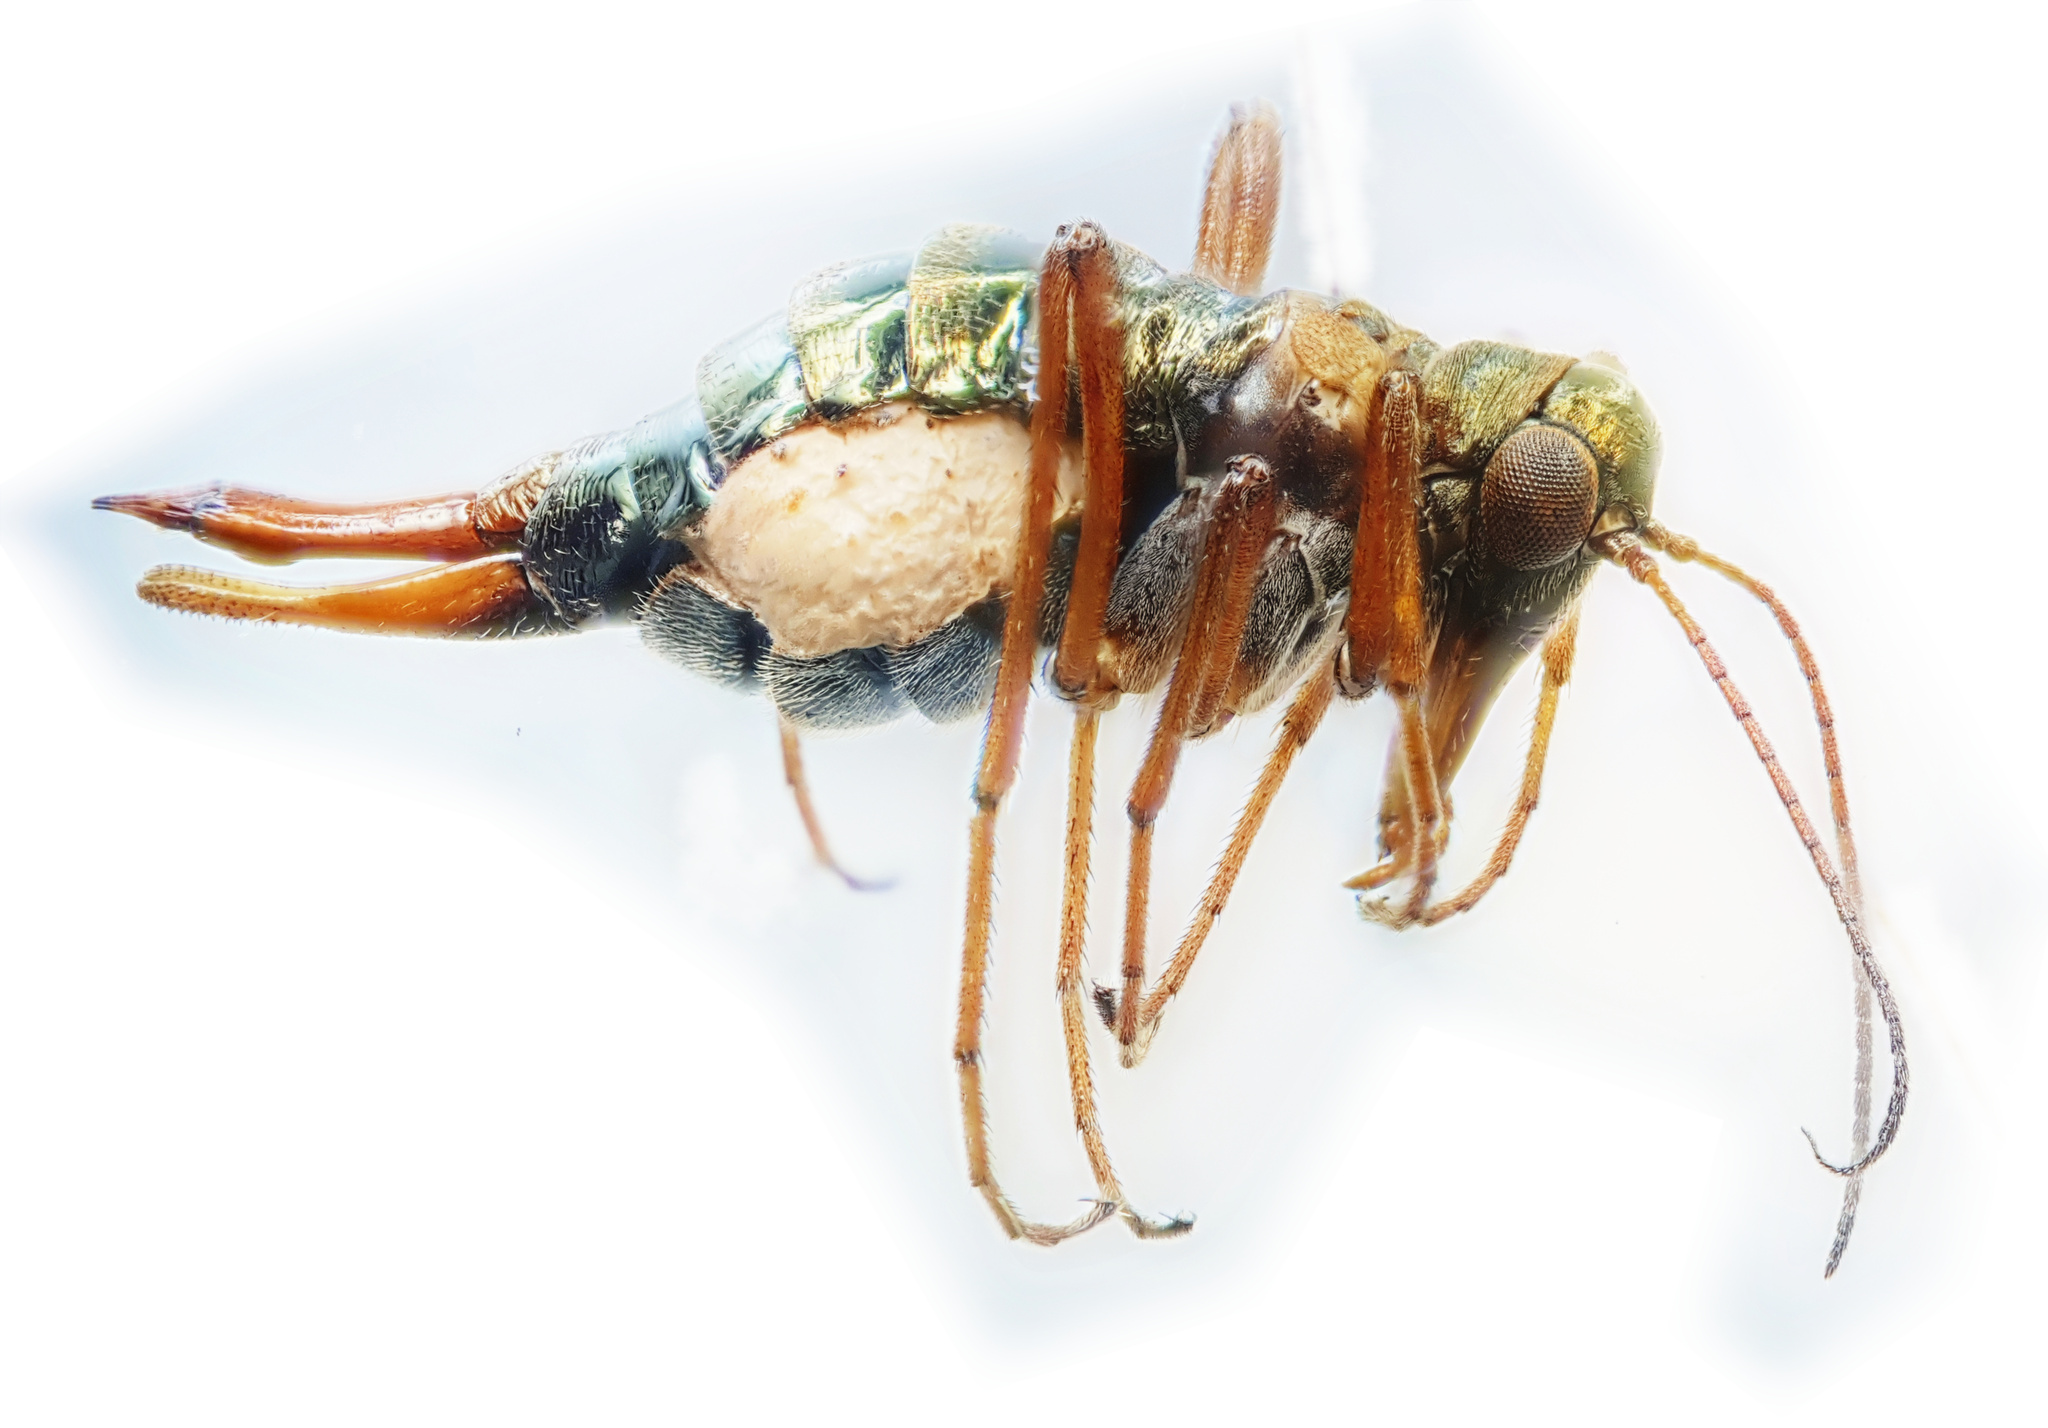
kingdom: Animalia
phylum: Arthropoda
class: Insecta
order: Mecoptera
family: Boreidae
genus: Boreus
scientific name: Boreus westwoodi
